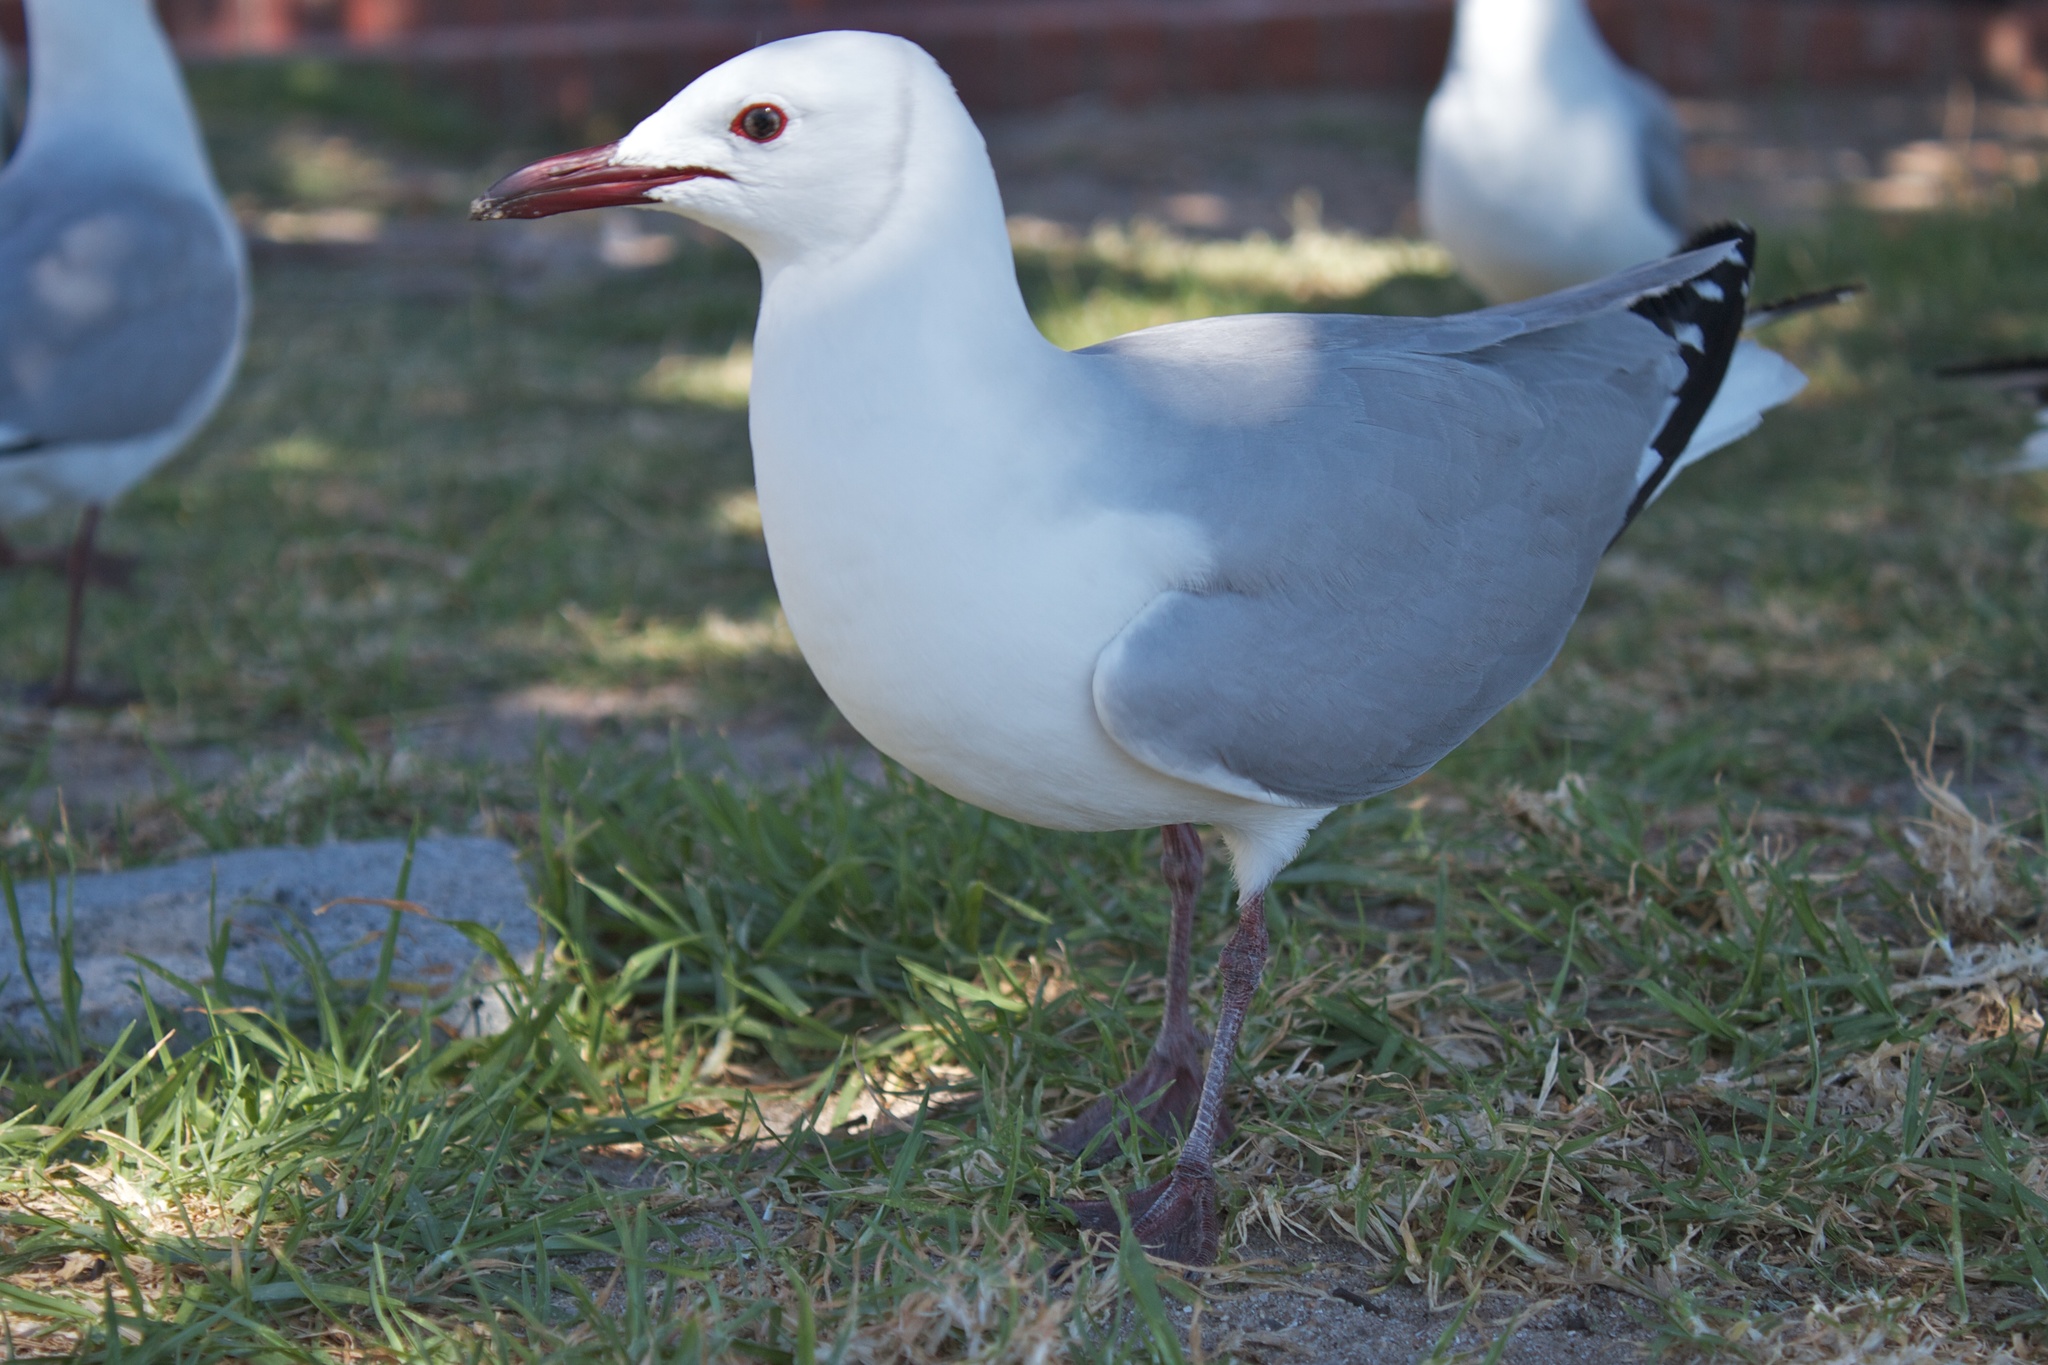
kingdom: Animalia
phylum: Chordata
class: Aves
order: Charadriiformes
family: Laridae
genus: Chroicocephalus
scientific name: Chroicocephalus hartlaubii
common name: Hartlaub's gull
